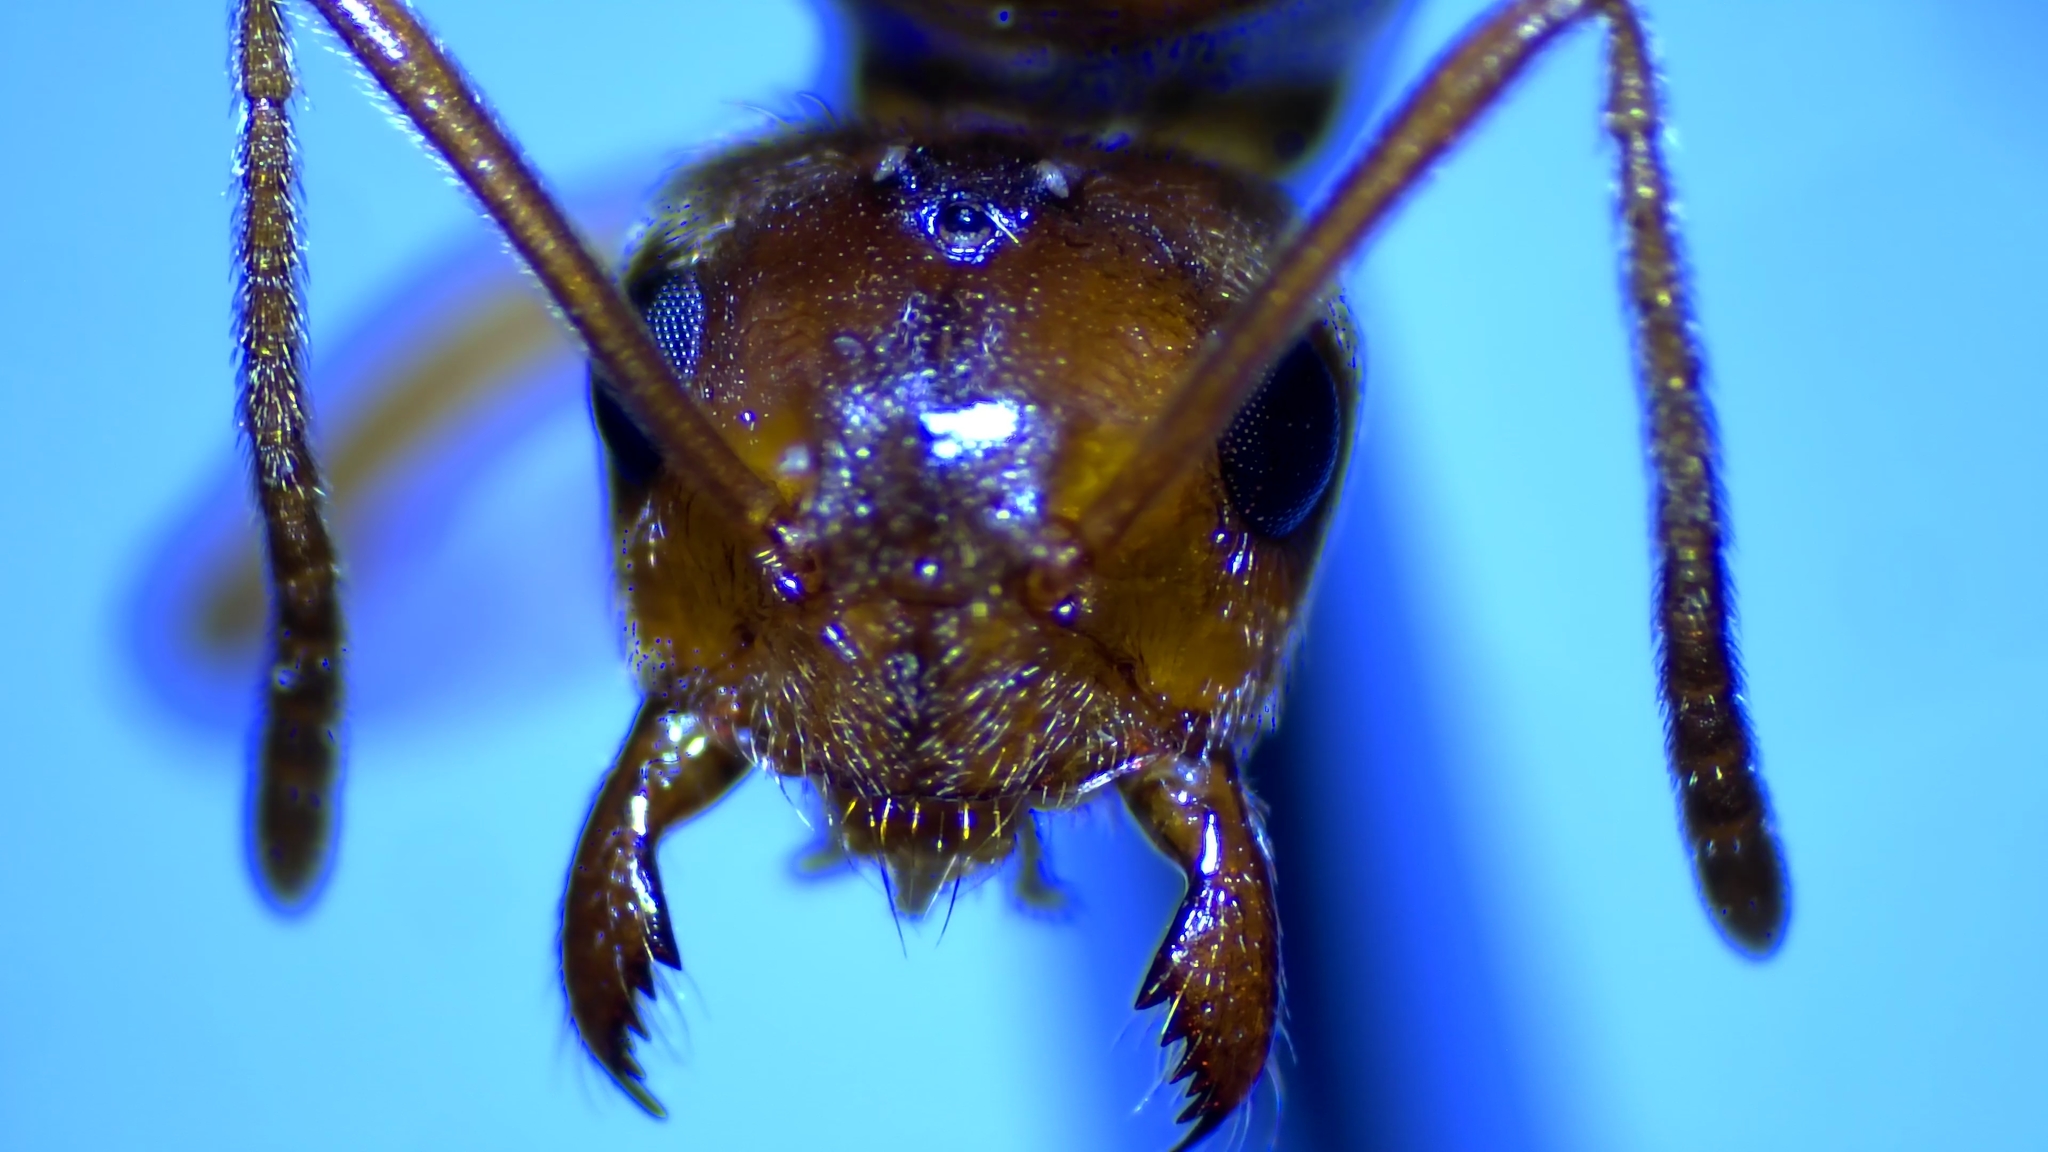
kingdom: Animalia
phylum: Arthropoda
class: Insecta
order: Hymenoptera
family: Formicidae
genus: Prenolepis
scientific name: Prenolepis imparis
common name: Small honey ant
